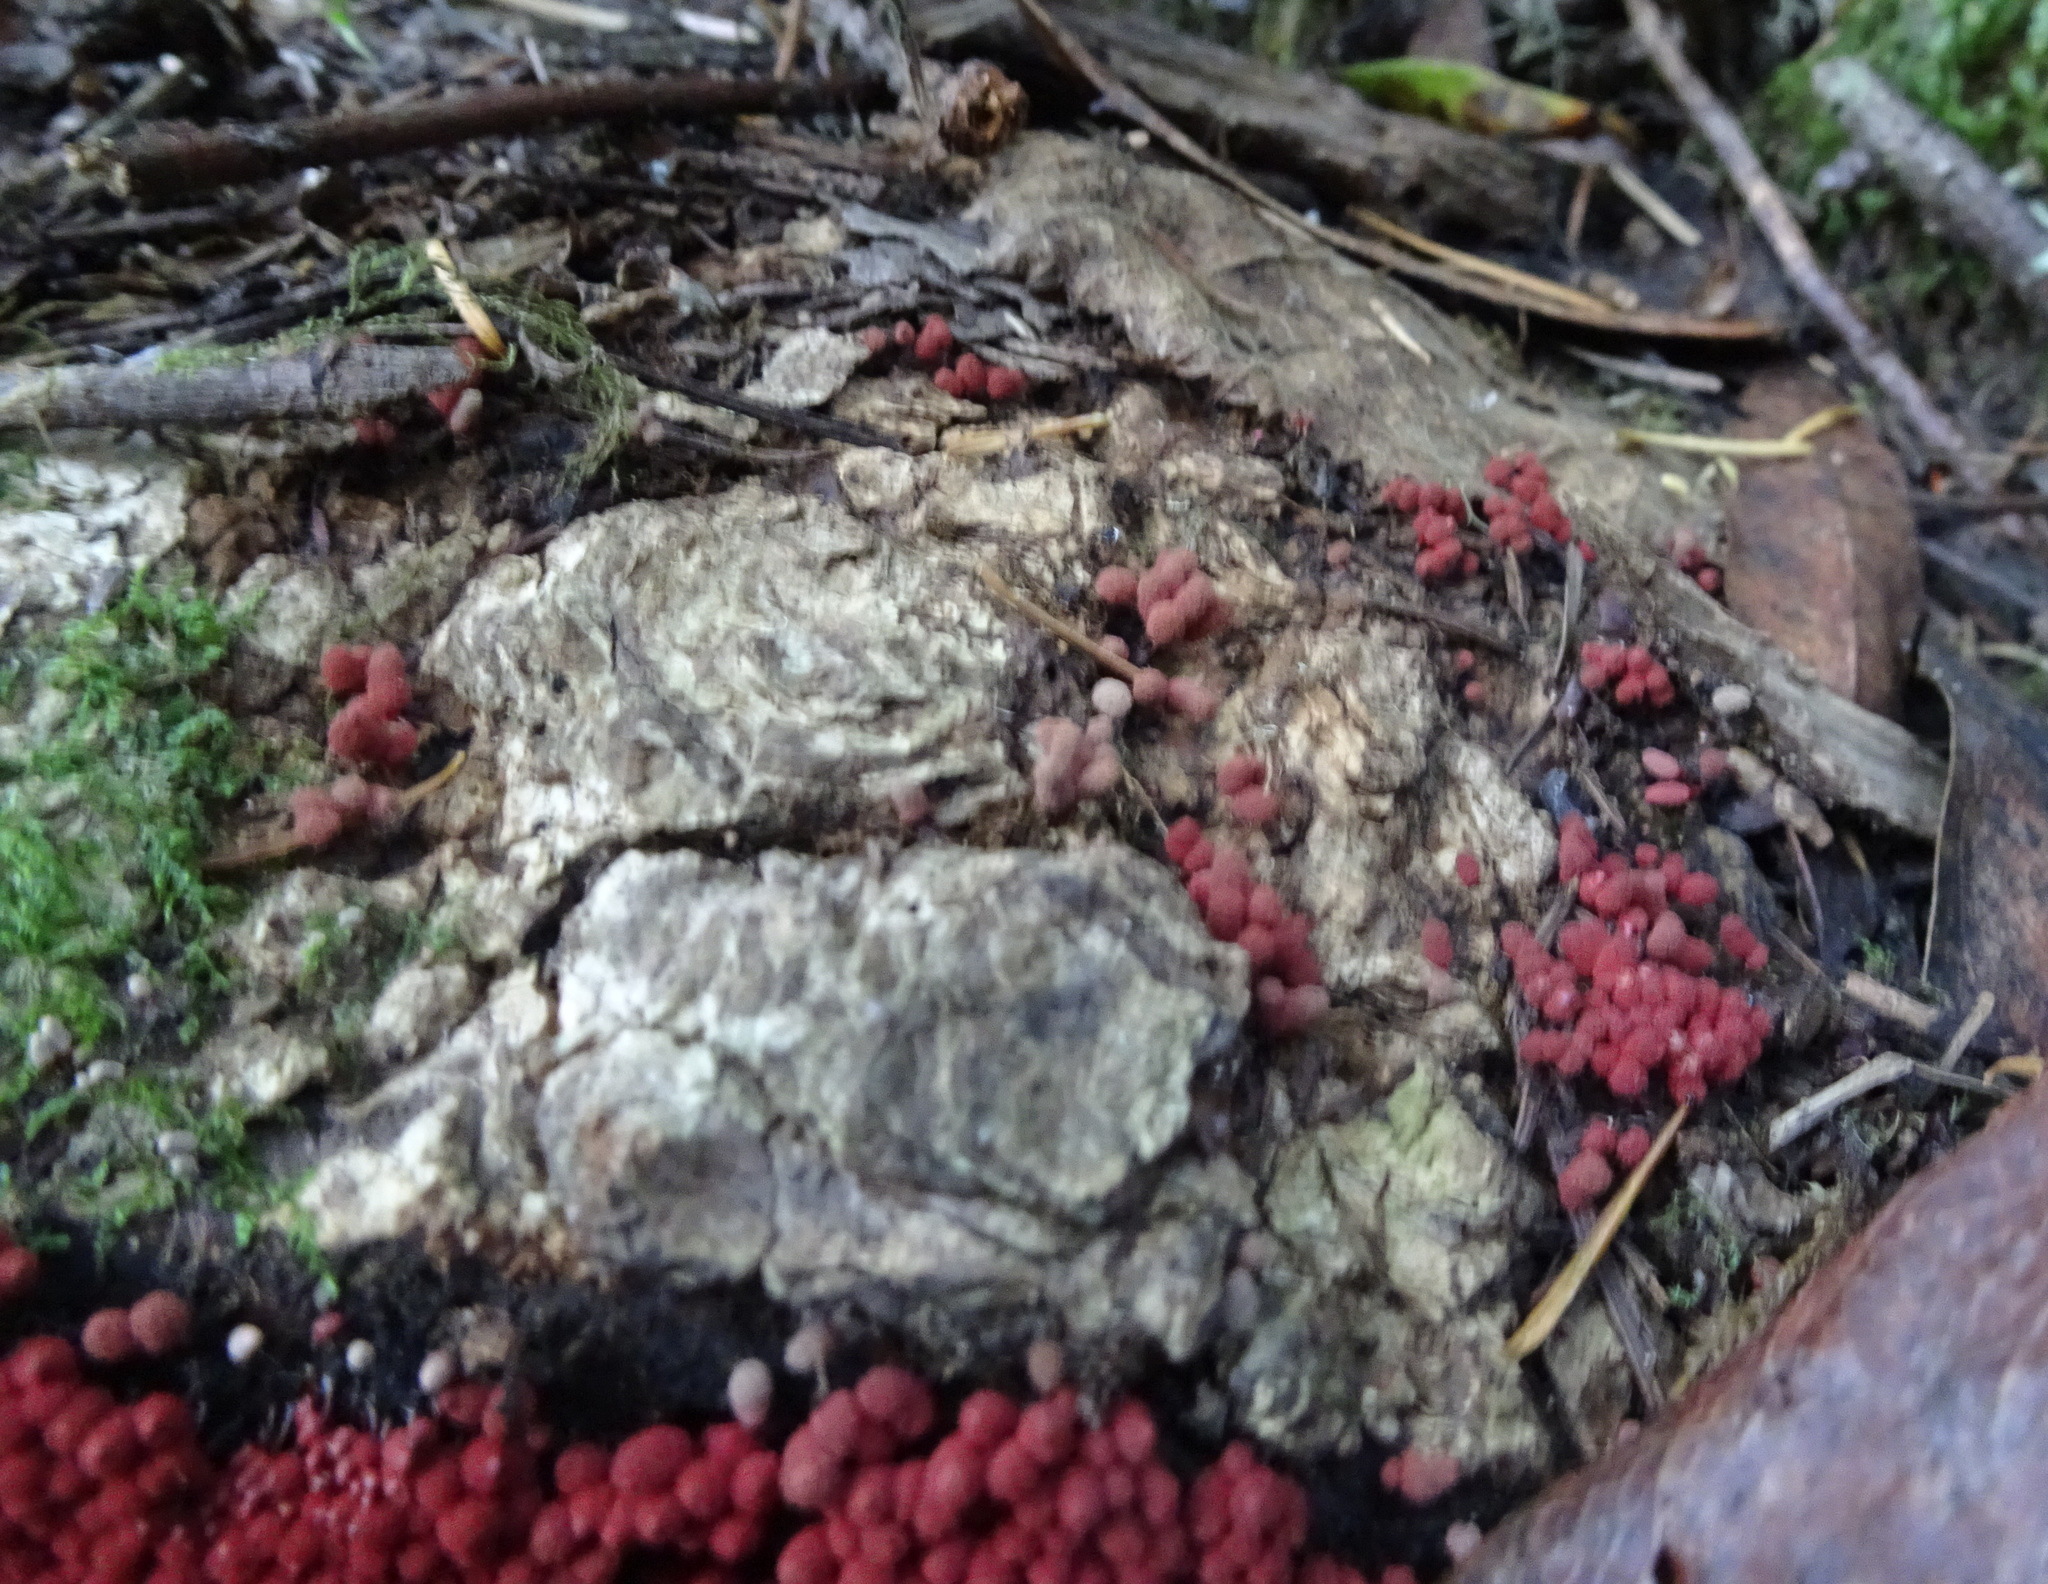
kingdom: Protozoa
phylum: Mycetozoa
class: Myxomycetes
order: Trichiales
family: Arcyriaceae
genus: Arcyria
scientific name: Arcyria denudata
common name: Carnival candy slime mold
